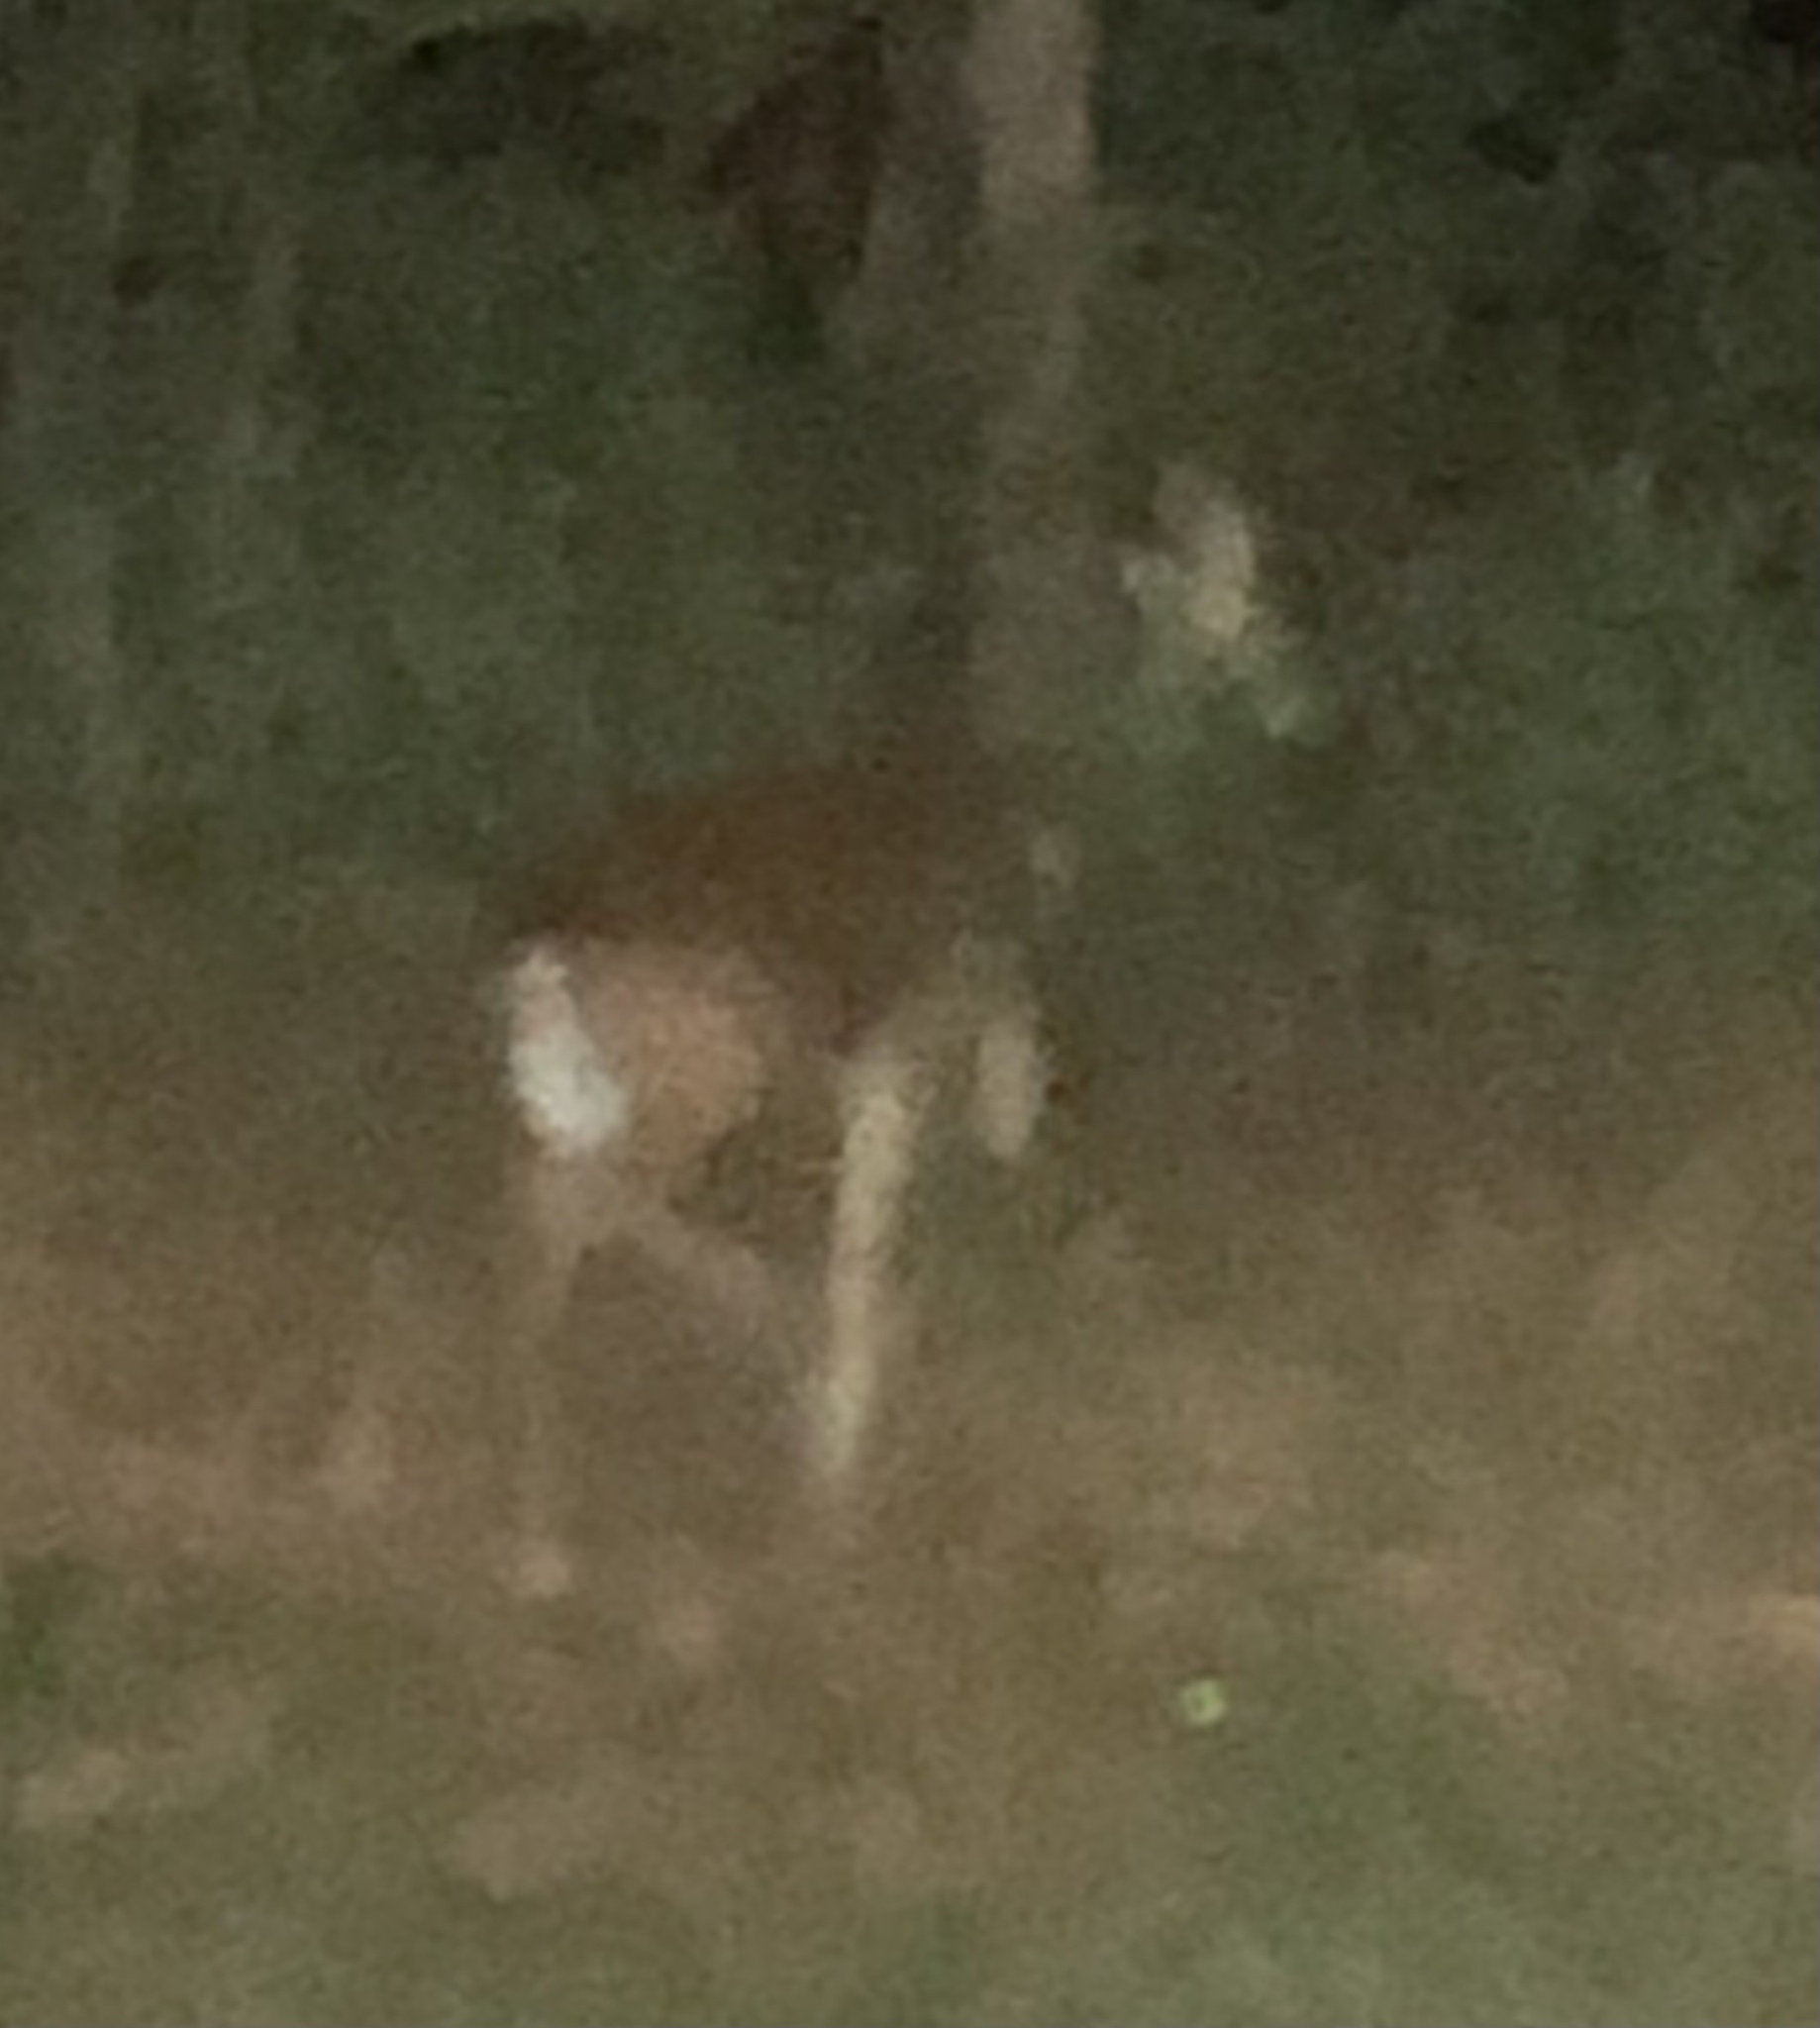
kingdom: Animalia
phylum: Chordata
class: Mammalia
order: Artiodactyla
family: Cervidae
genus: Odocoileus
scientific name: Odocoileus virginianus
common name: White-tailed deer
